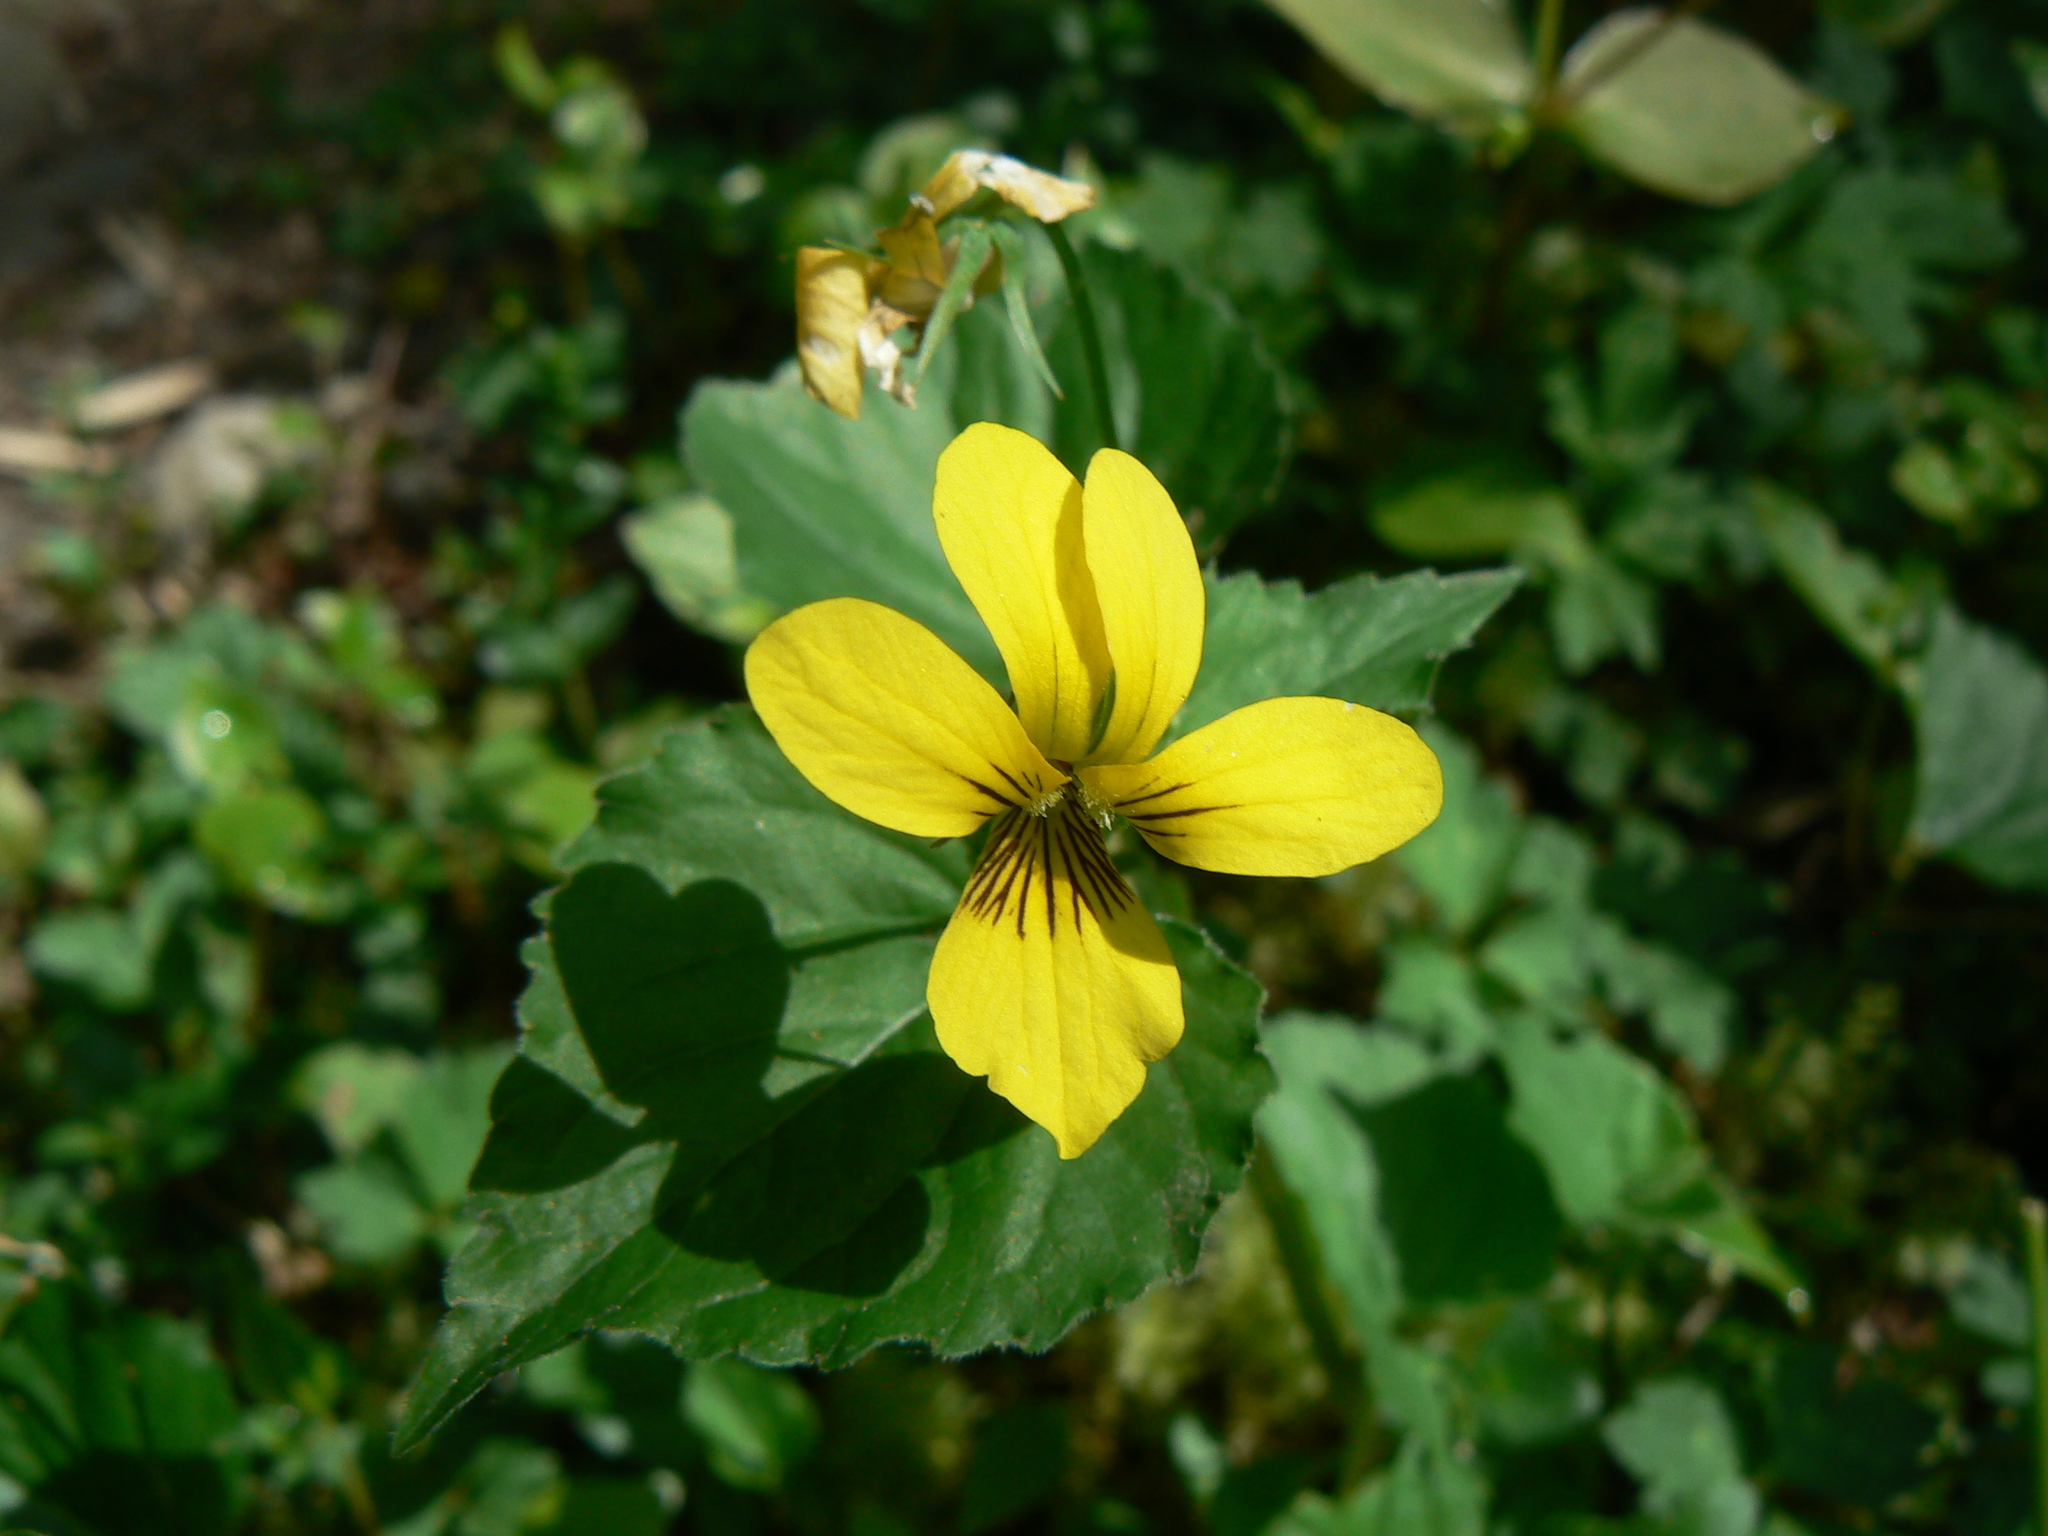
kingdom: Plantae
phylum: Tracheophyta
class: Magnoliopsida
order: Malpighiales
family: Violaceae
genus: Viola
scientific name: Viola glabella
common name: Stream violet
